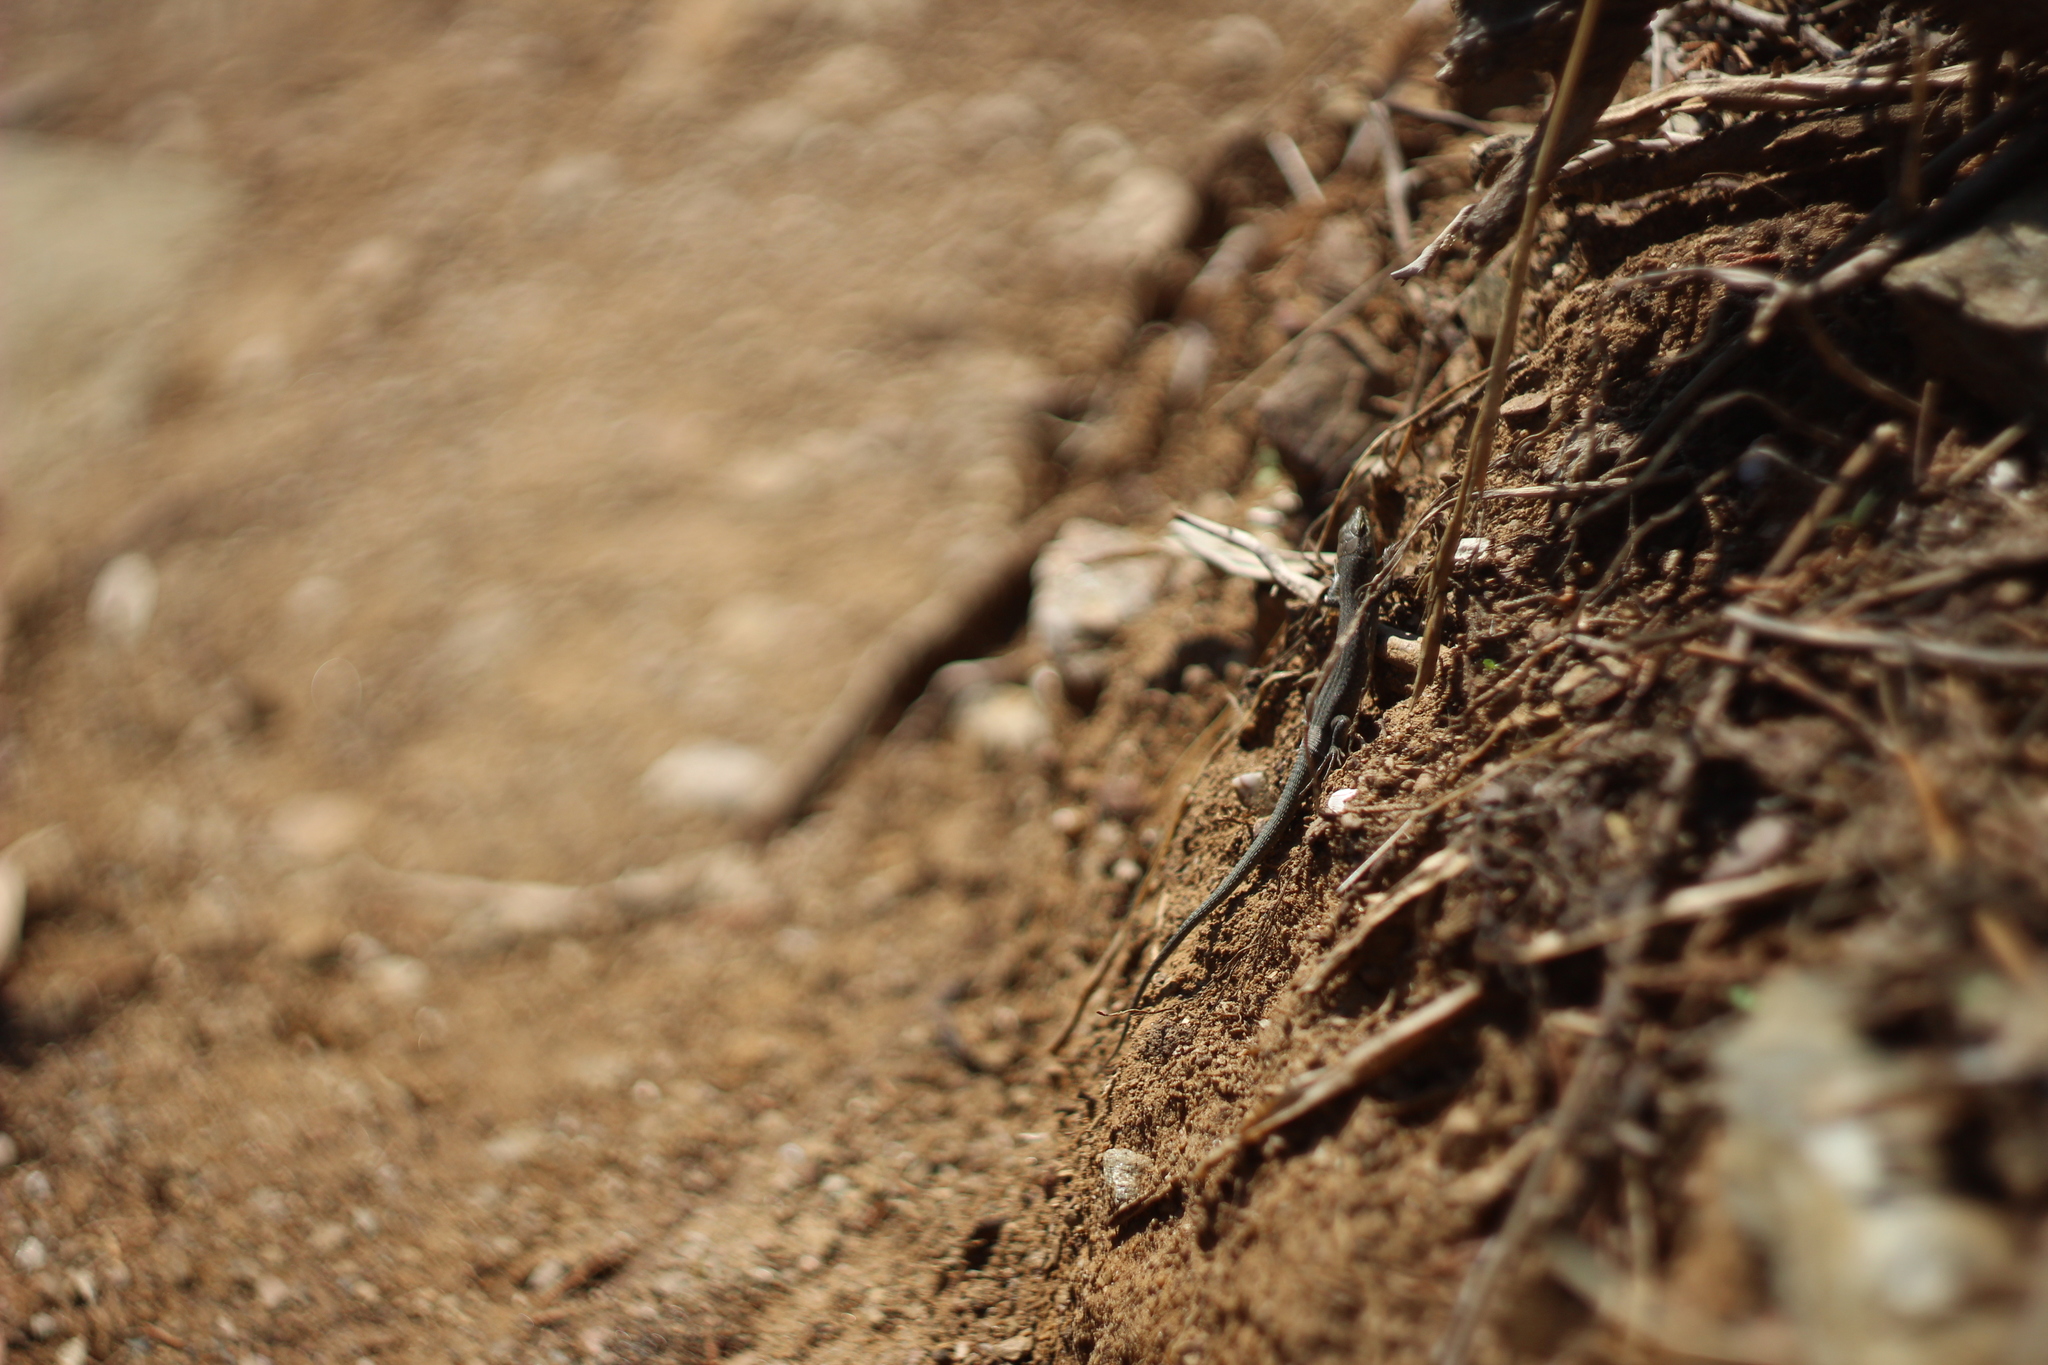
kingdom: Animalia
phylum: Chordata
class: Squamata
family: Lacertidae
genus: Podarcis
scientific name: Podarcis tiliguerta
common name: Tyrrhenian wall lizard
